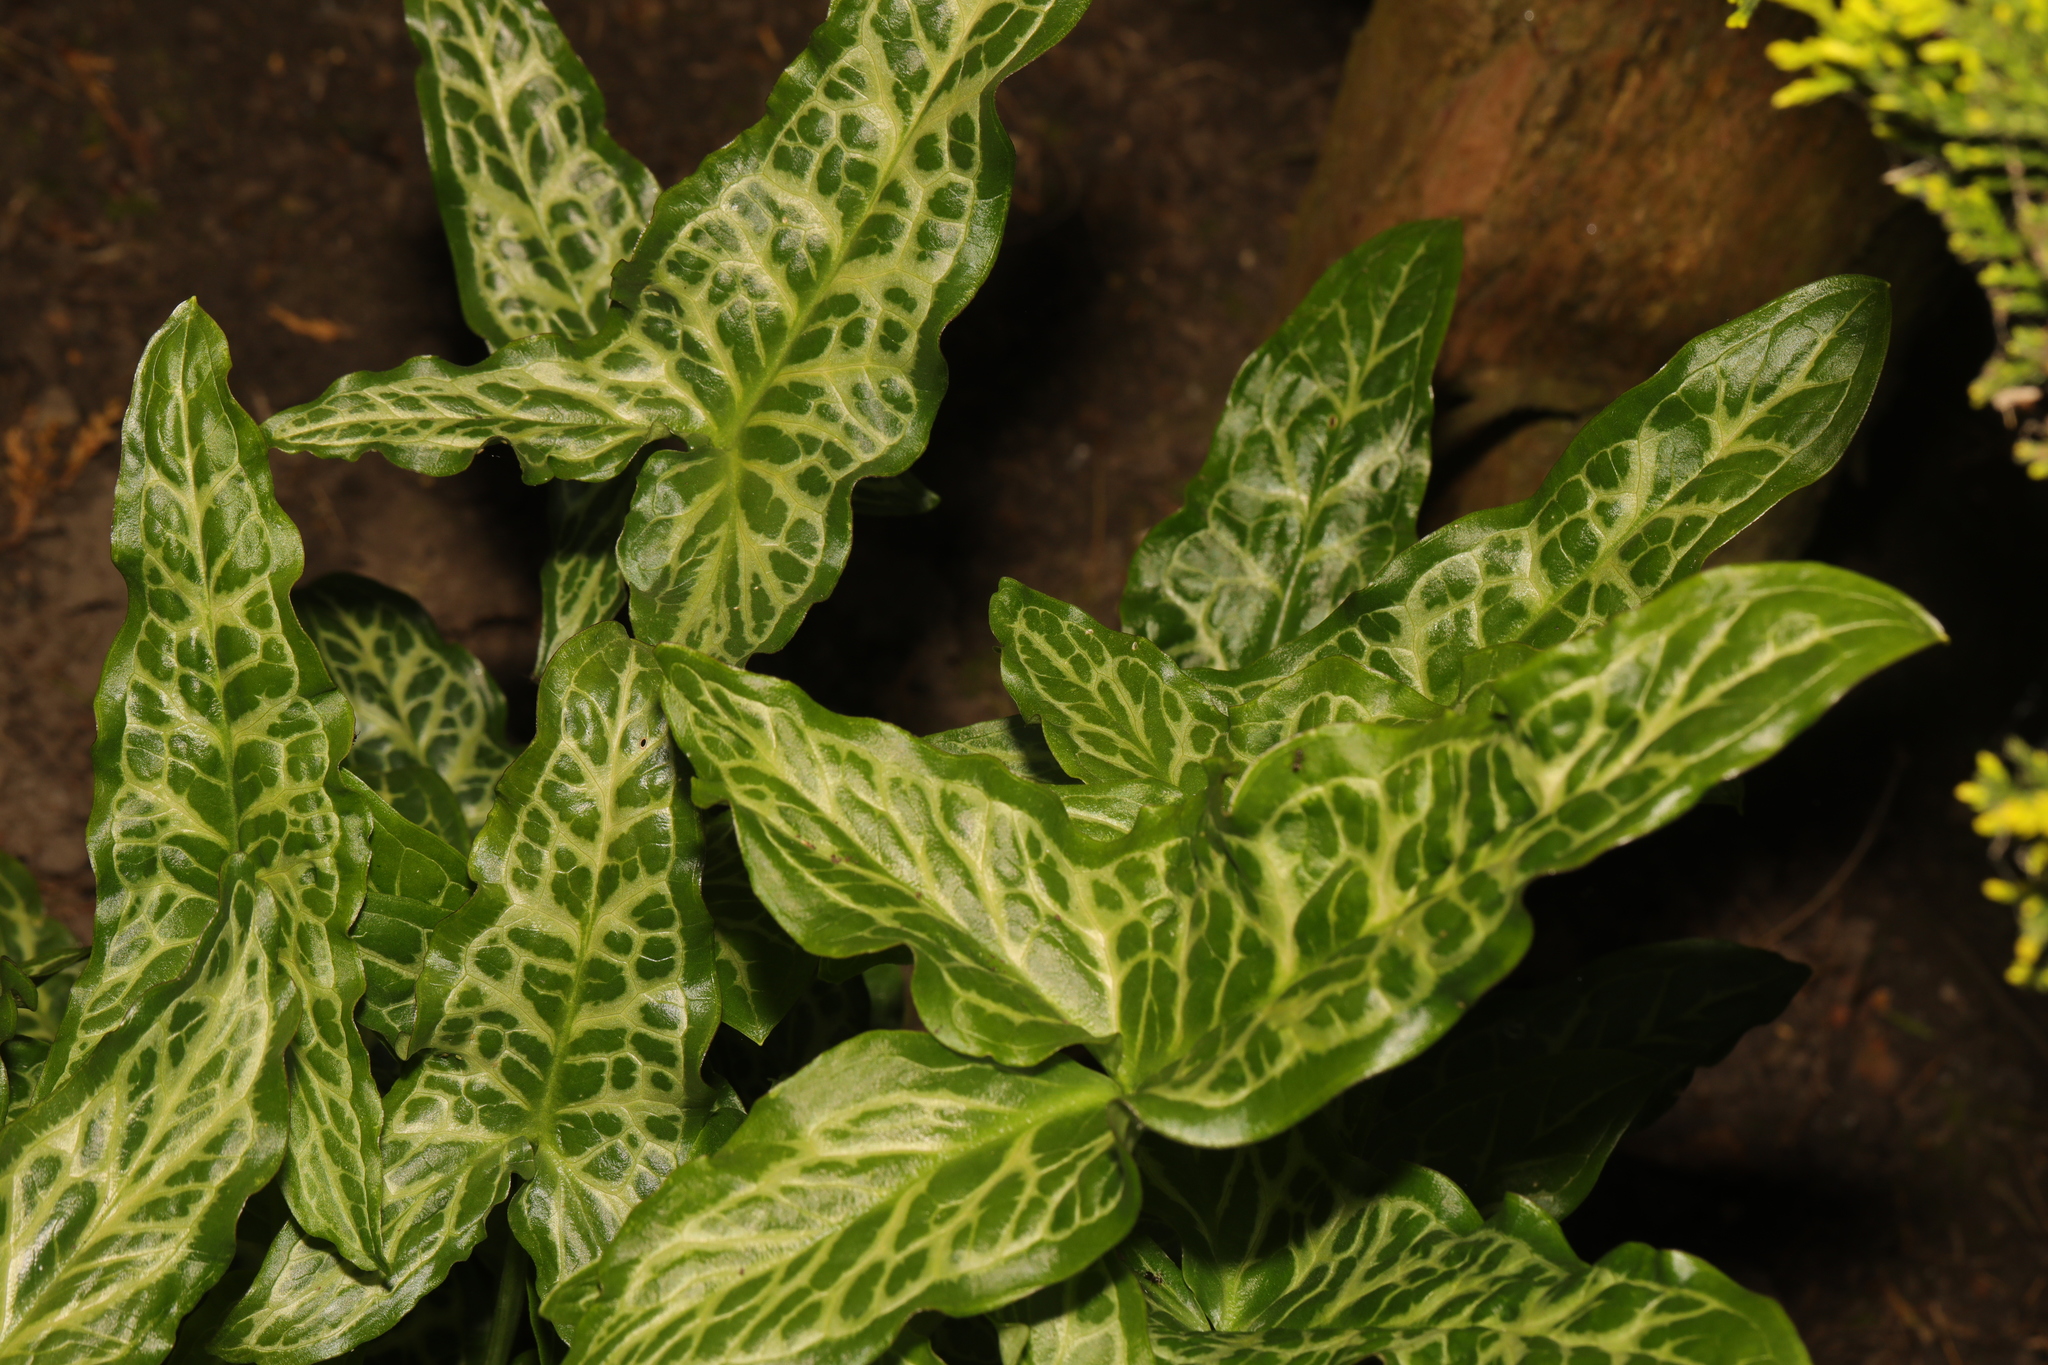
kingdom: Plantae
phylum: Tracheophyta
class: Liliopsida
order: Alismatales
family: Araceae
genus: Arum
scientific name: Arum italicum
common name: Italian lords-and-ladies
